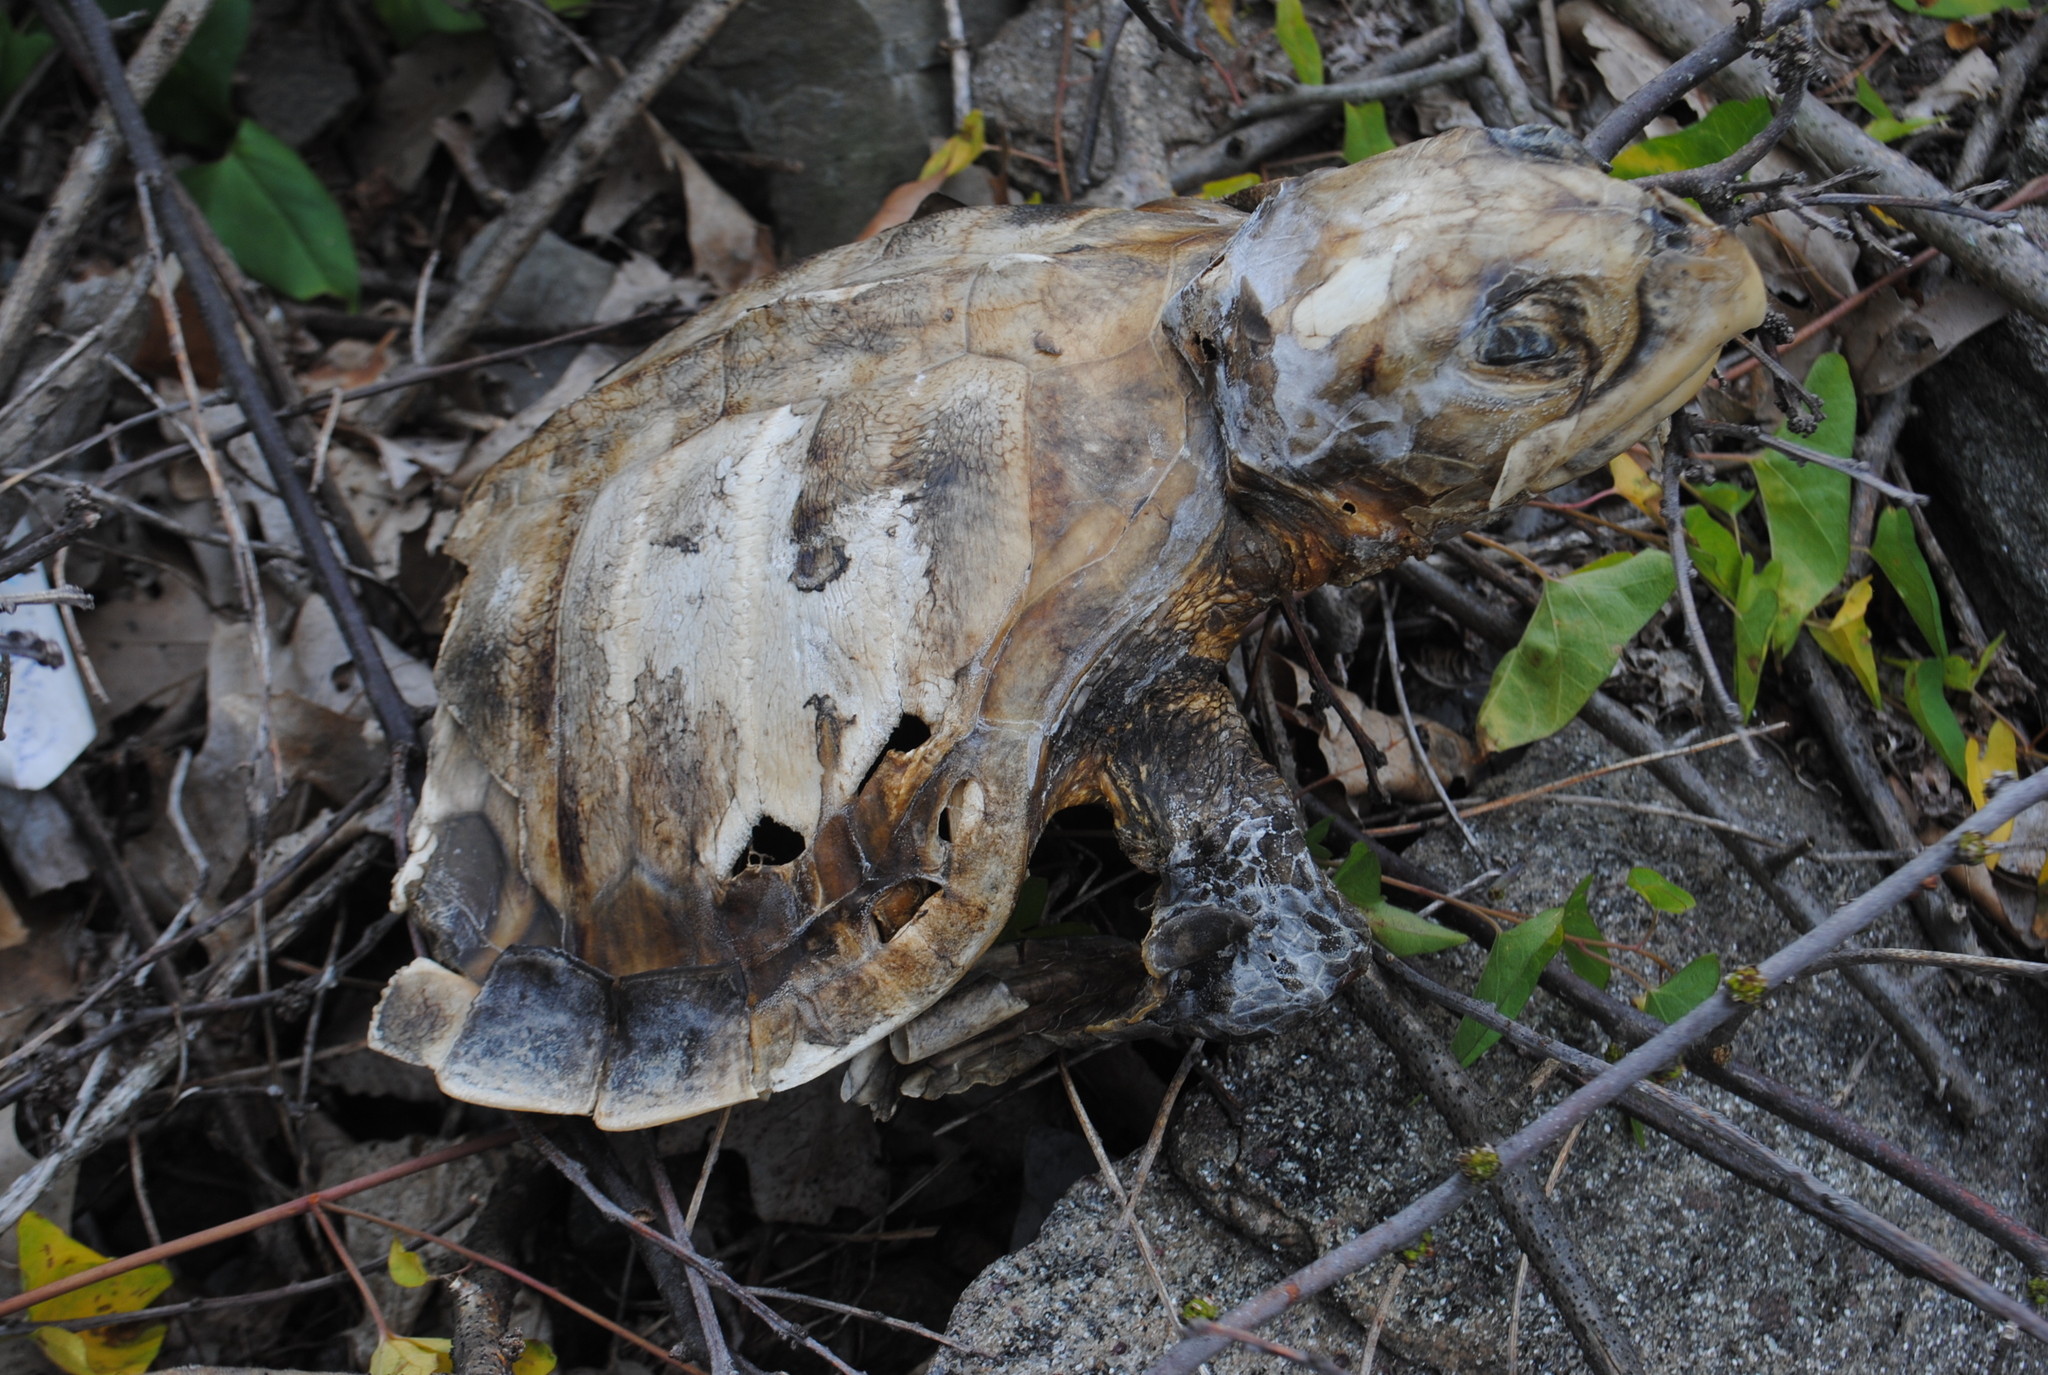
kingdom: Animalia
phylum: Chordata
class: Testudines
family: Cheloniidae
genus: Lepidochelys
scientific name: Lepidochelys kempii
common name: Kemp's ridley turtle
